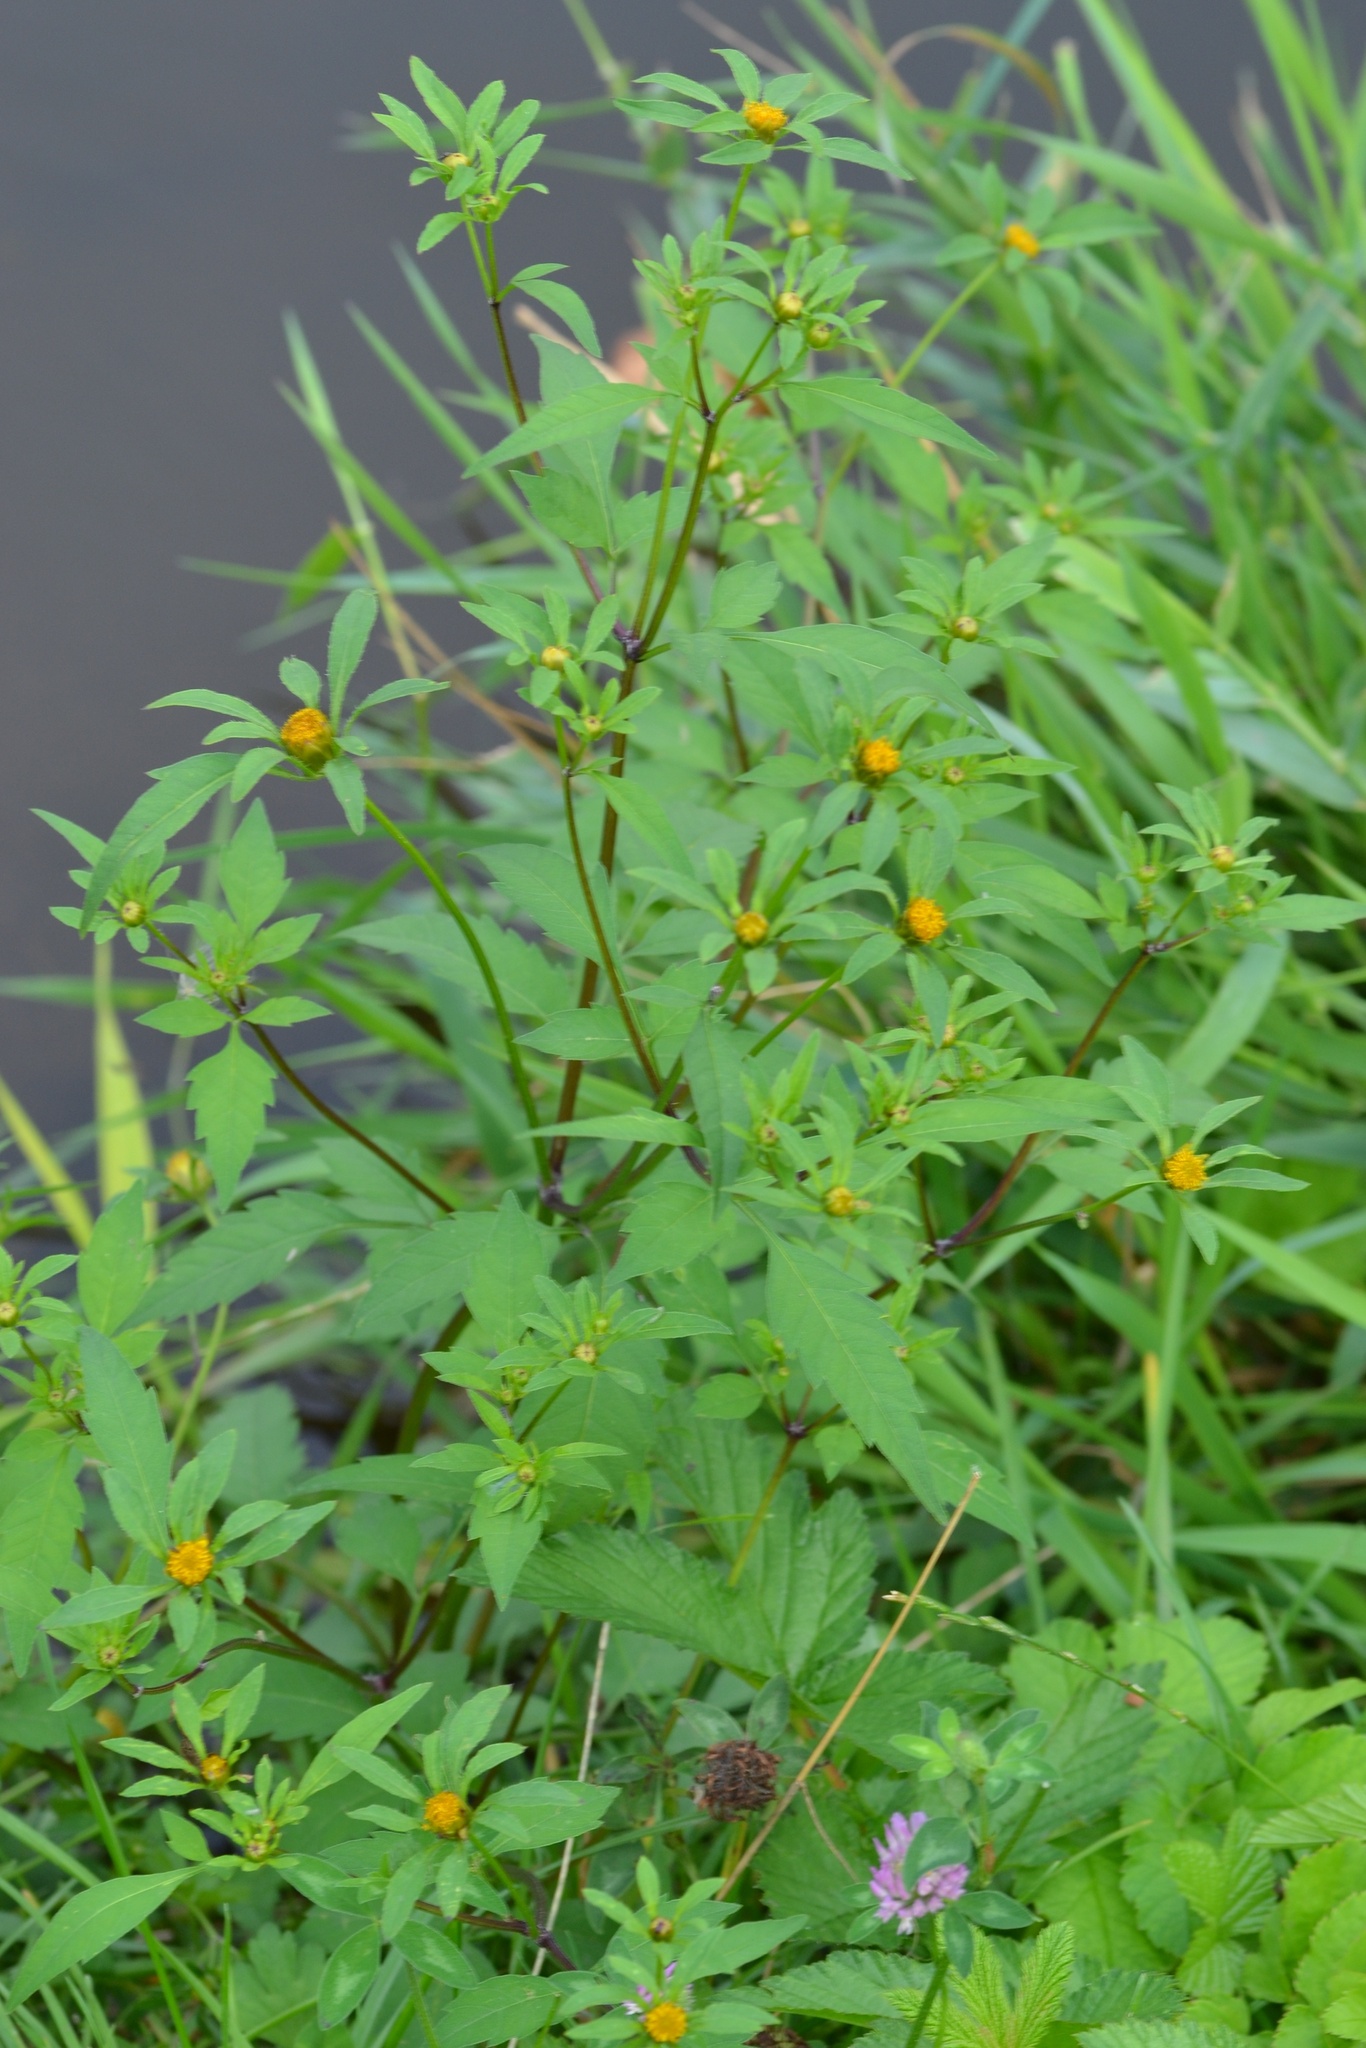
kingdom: Plantae
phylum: Tracheophyta
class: Magnoliopsida
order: Asterales
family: Asteraceae
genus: Bidens
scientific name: Bidens frondosa
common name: Beggarticks
